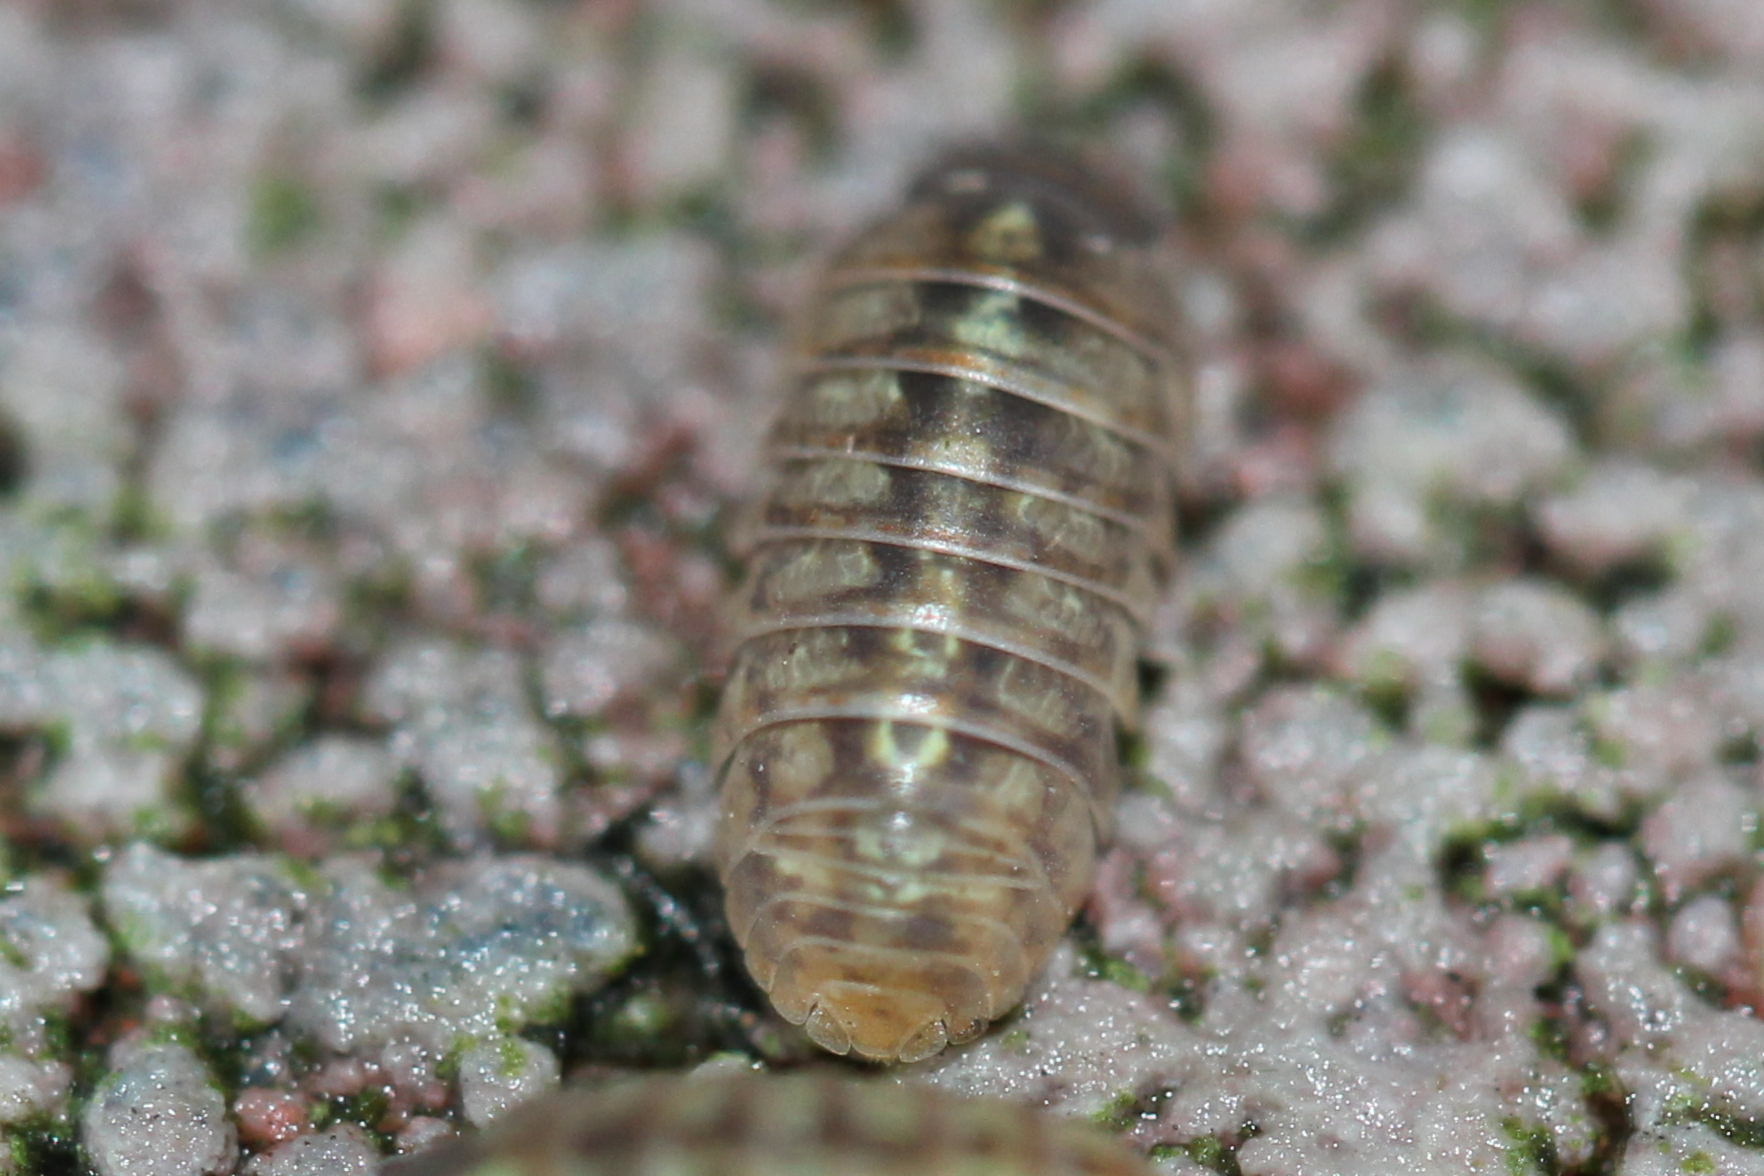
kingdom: Animalia
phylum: Arthropoda
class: Malacostraca
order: Isopoda
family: Armadillidiidae
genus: Armadillidium
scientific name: Armadillidium vulgare
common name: Common pill woodlouse
